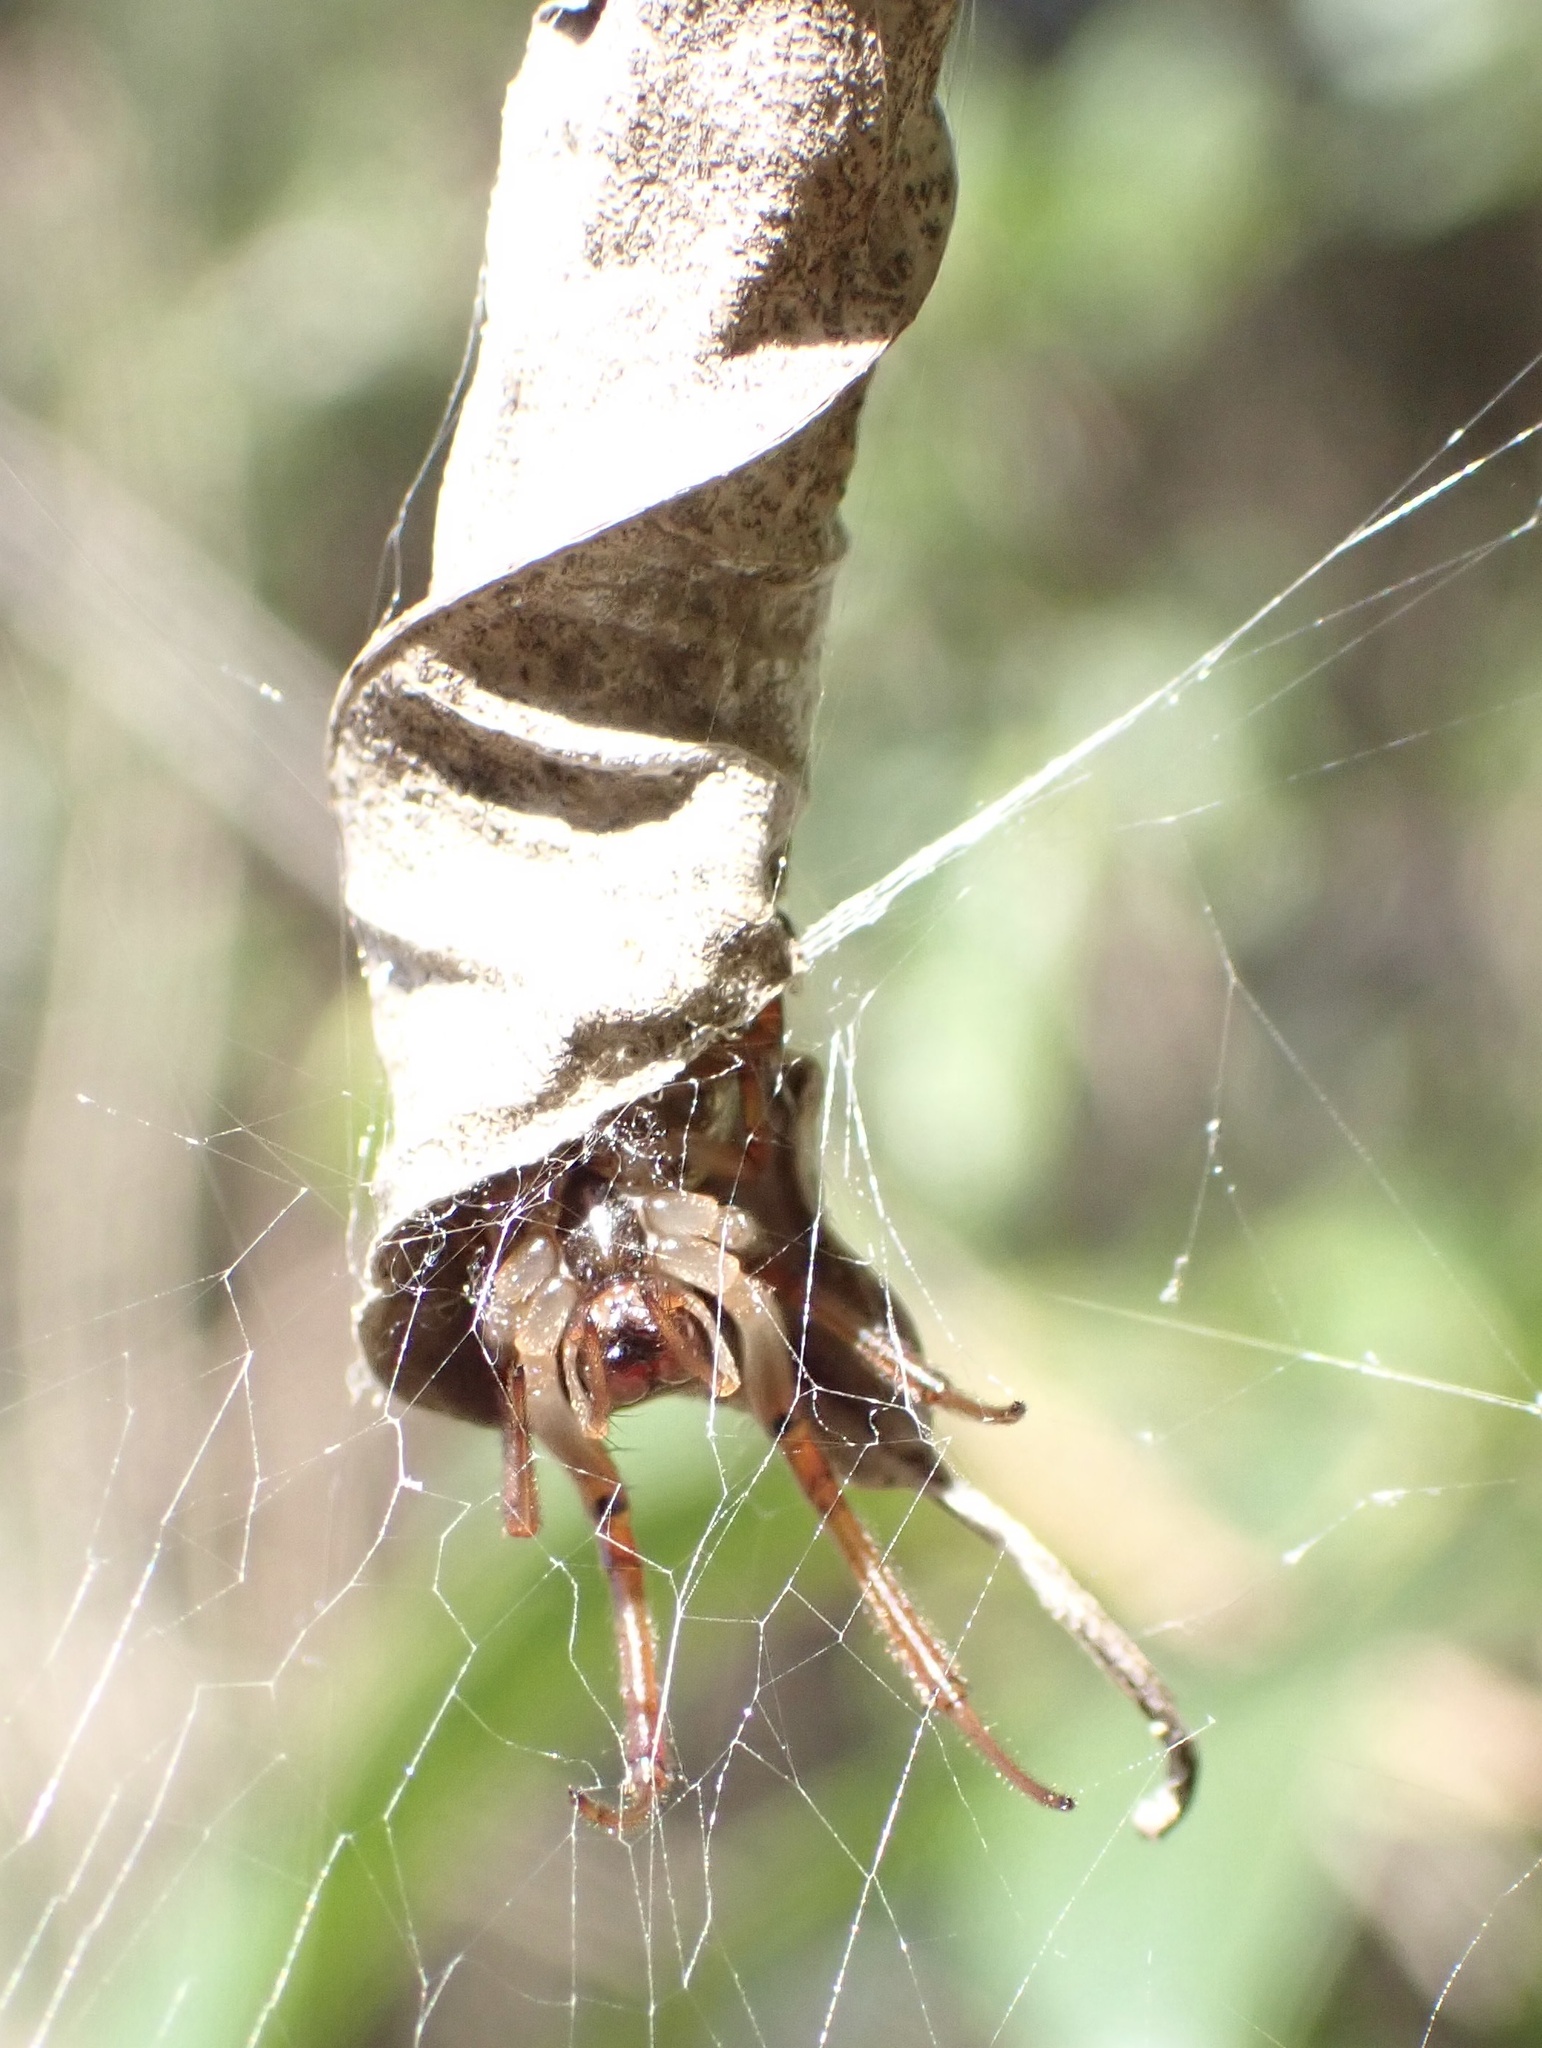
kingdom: Animalia
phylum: Arthropoda
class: Arachnida
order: Araneae
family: Araneidae
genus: Phonognatha
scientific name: Phonognatha graeffei
